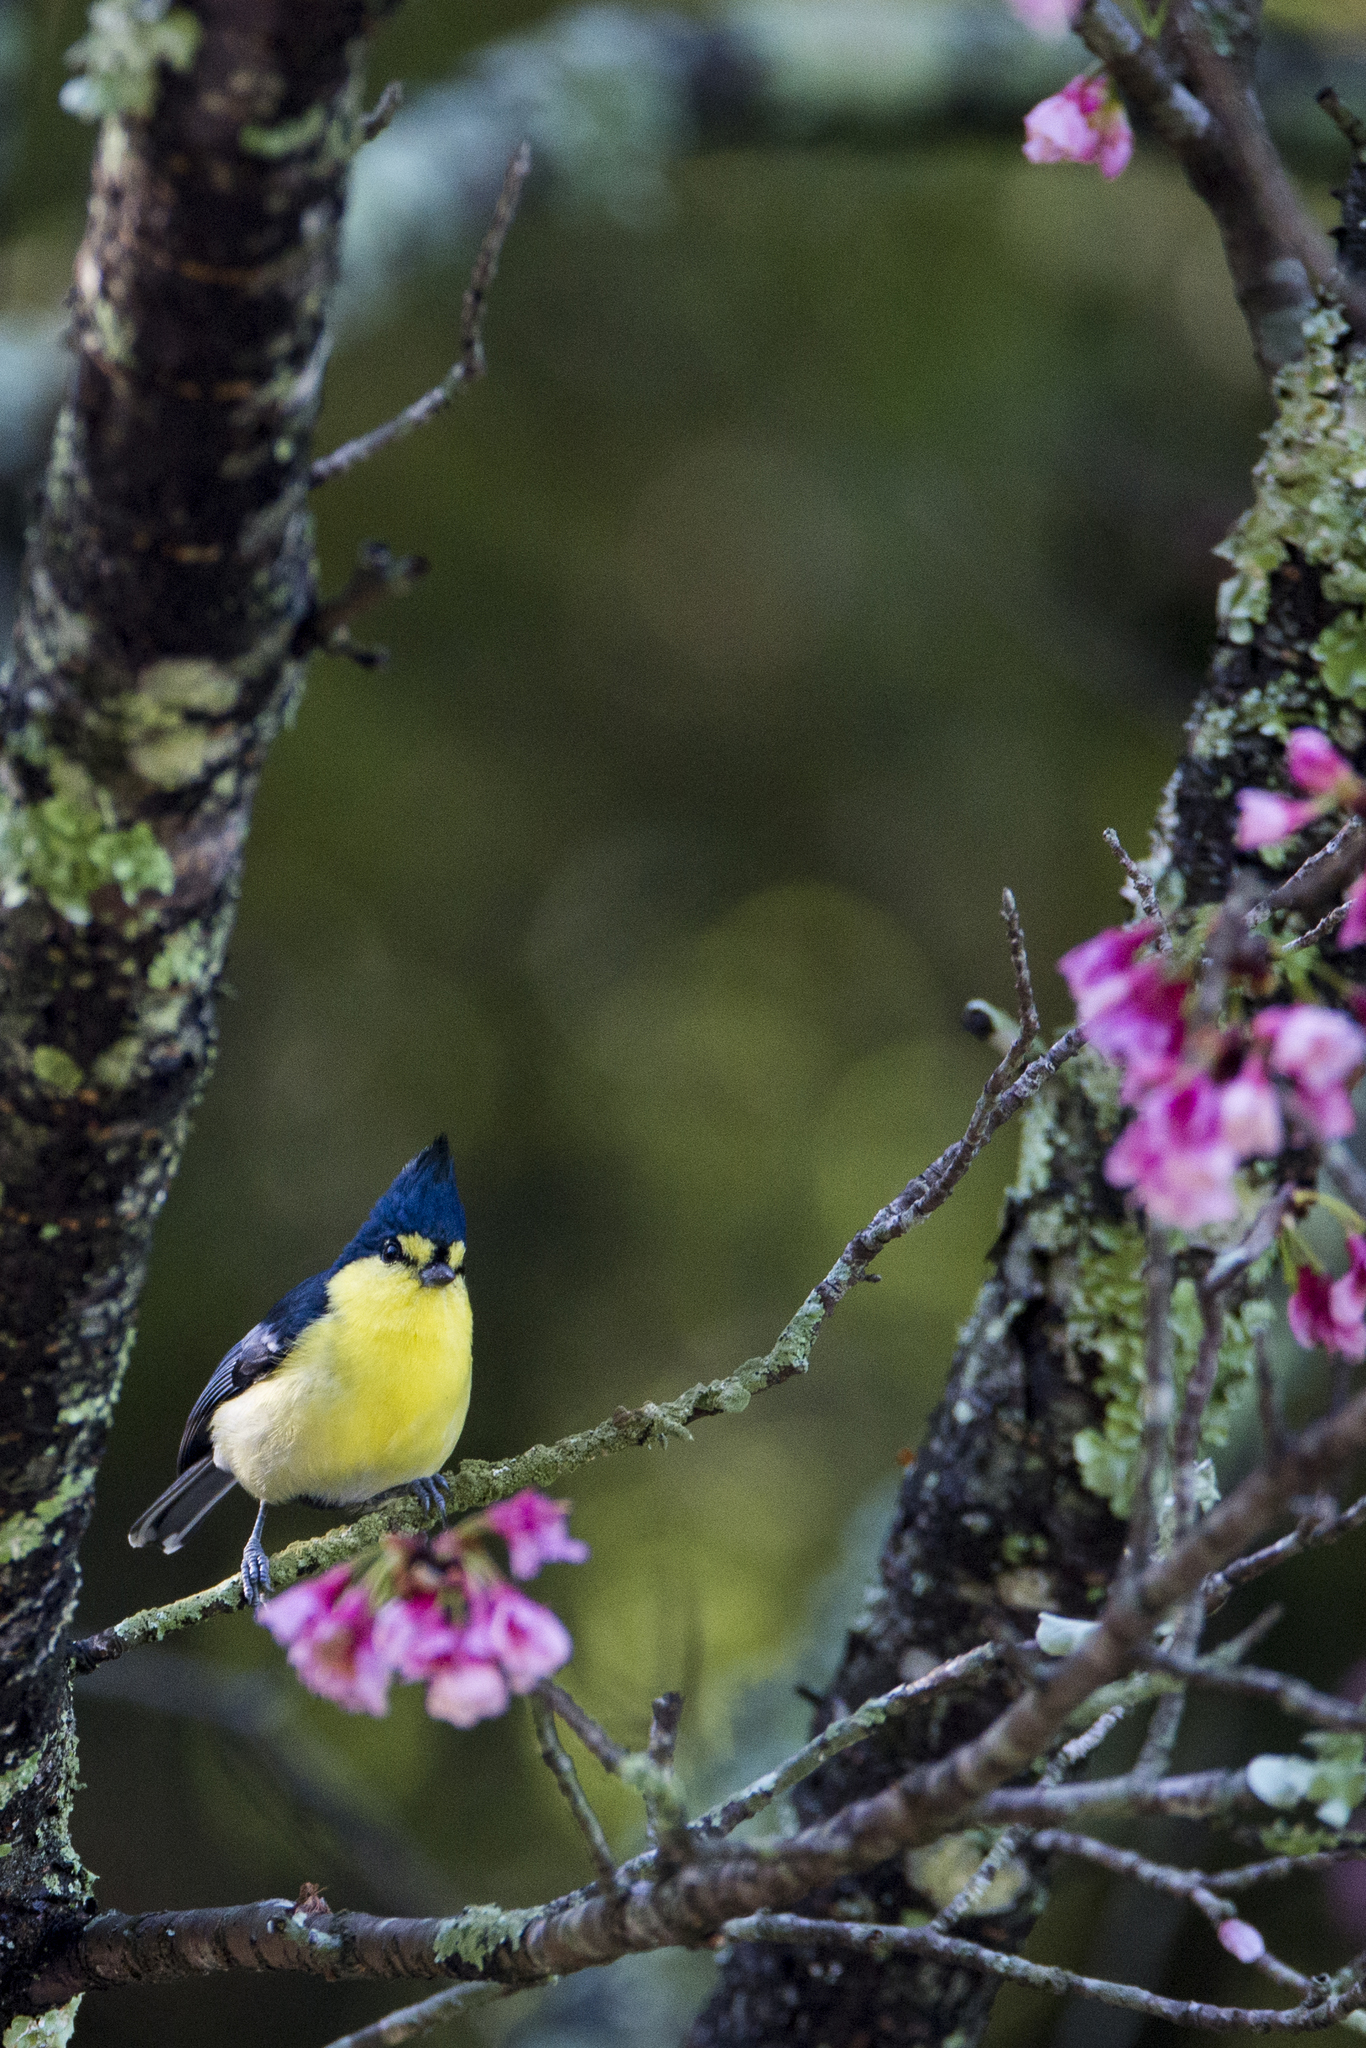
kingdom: Animalia
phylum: Chordata
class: Aves
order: Passeriformes
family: Paridae
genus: Parus
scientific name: Parus holsti
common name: Yellow tit
